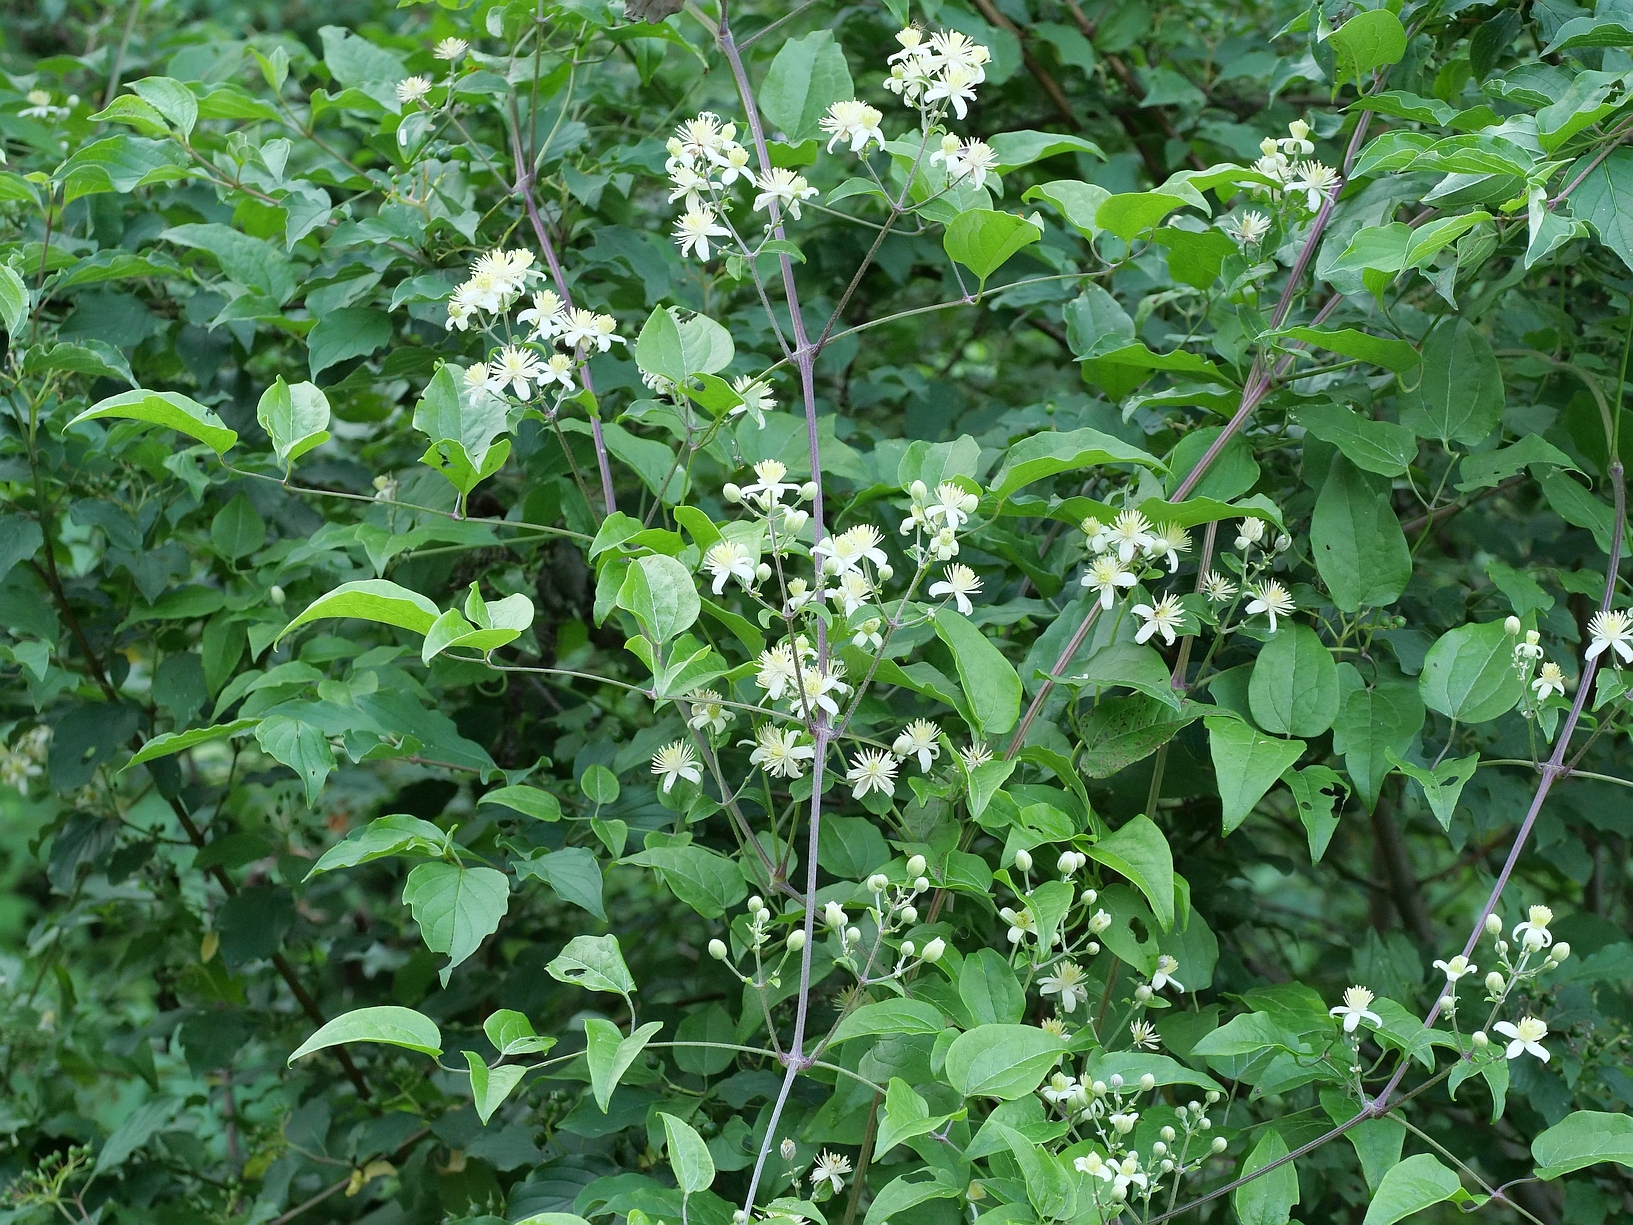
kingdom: Plantae
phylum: Tracheophyta
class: Magnoliopsida
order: Ranunculales
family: Ranunculaceae
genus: Clematis
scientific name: Clematis vitalba
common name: Evergreen clematis
